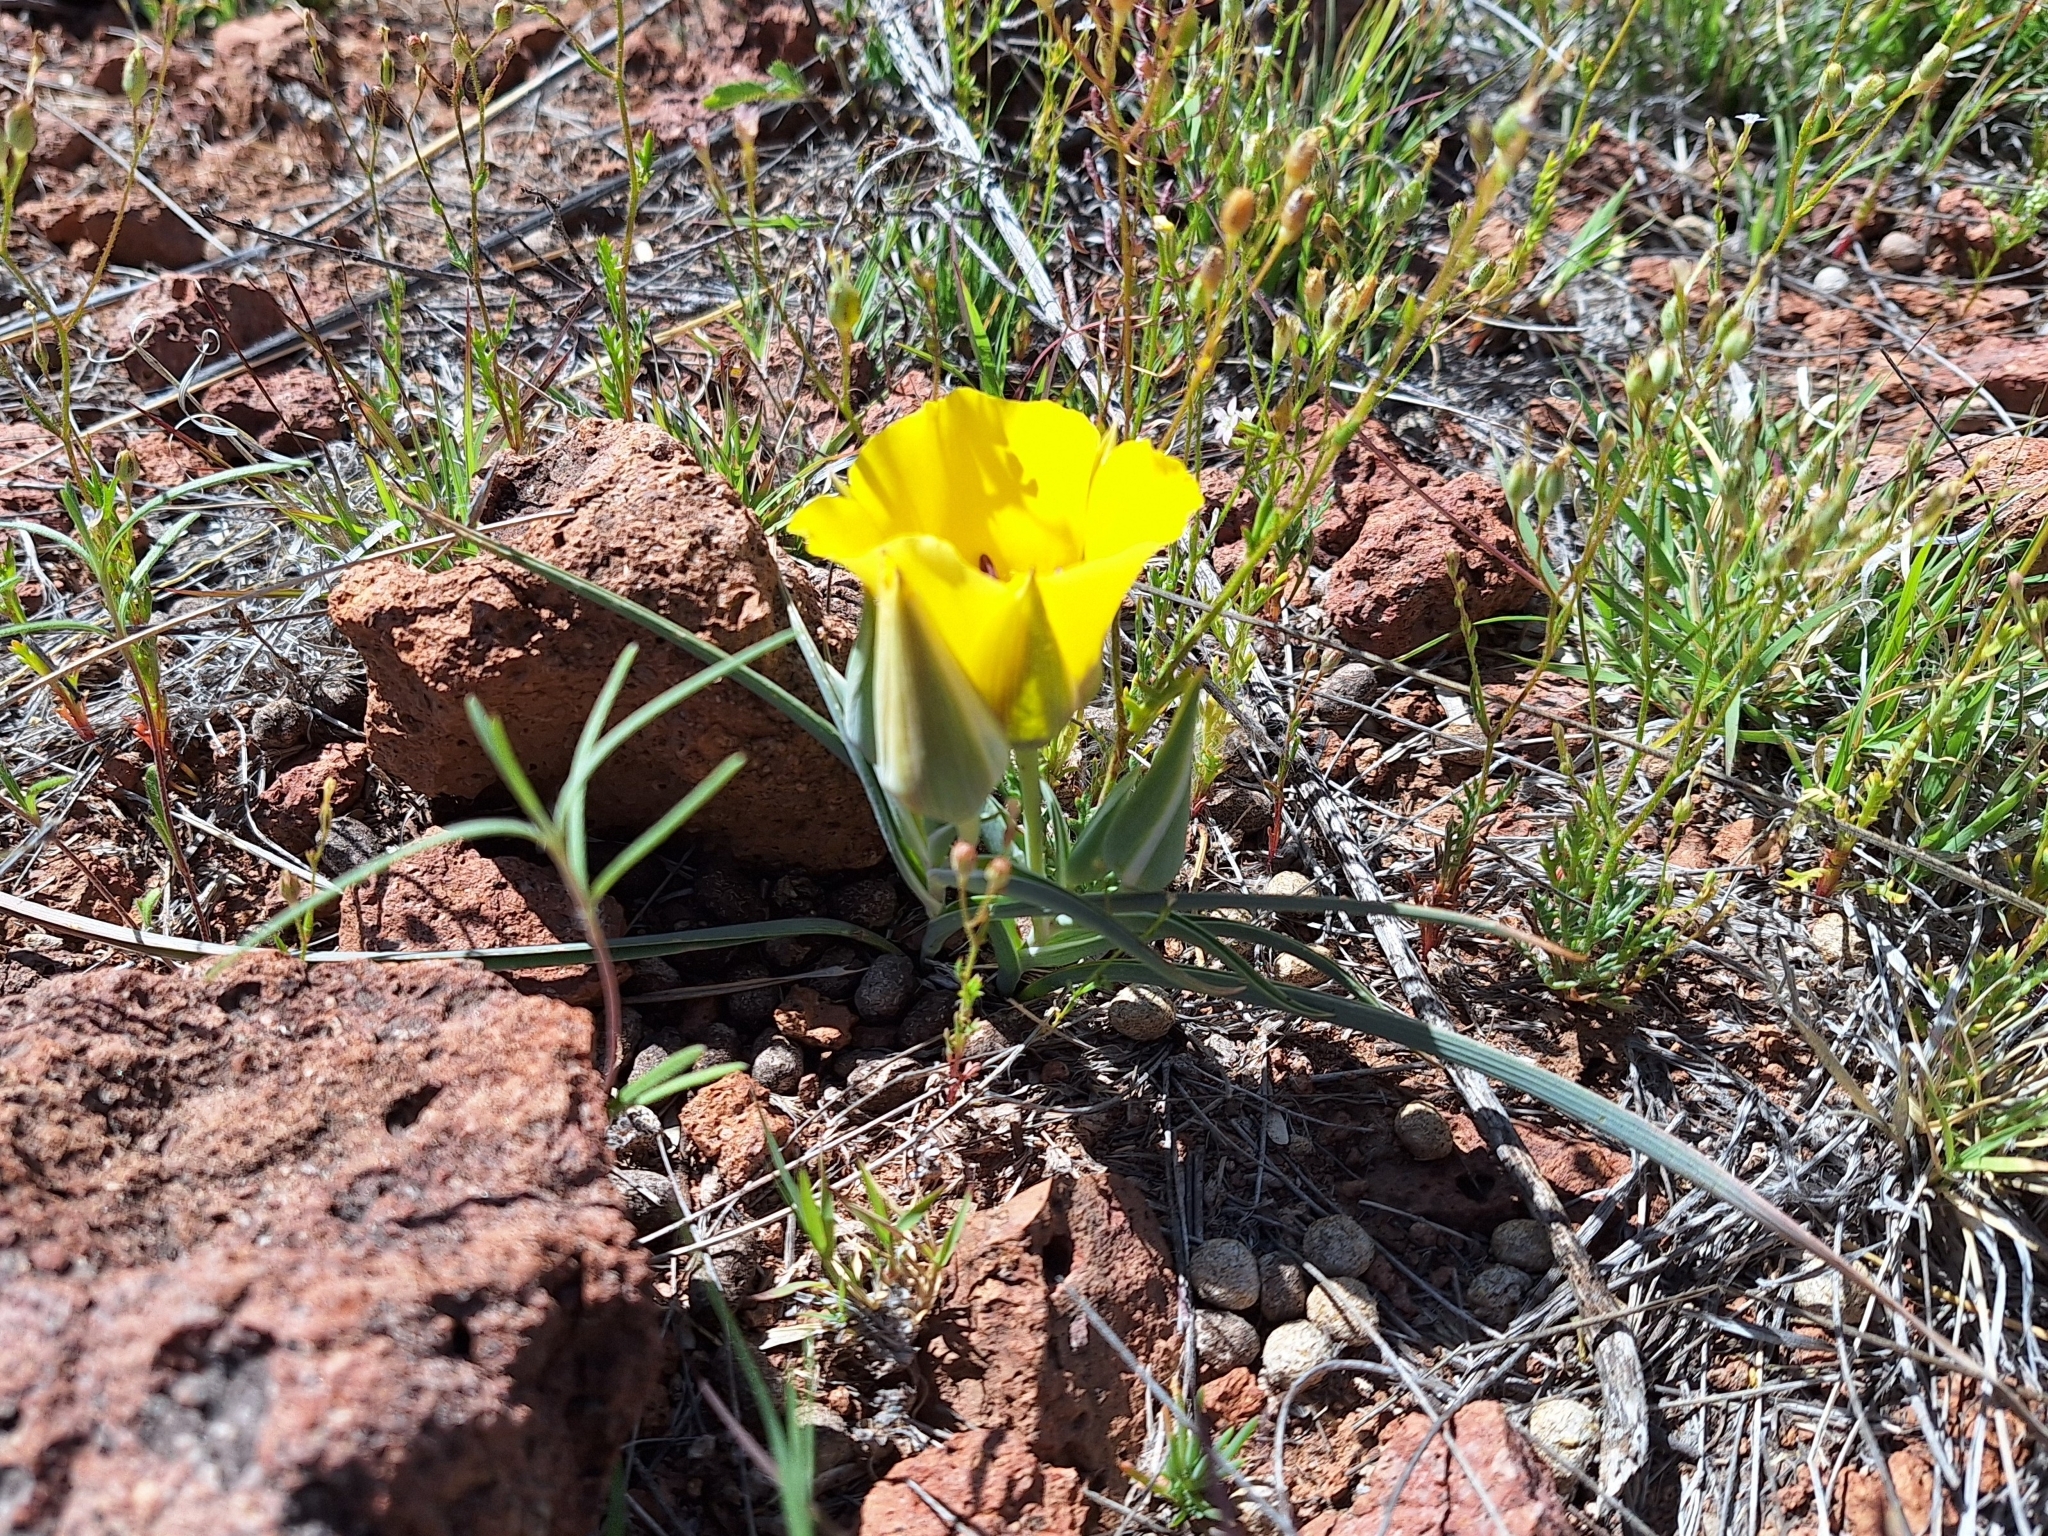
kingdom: Plantae
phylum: Tracheophyta
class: Liliopsida
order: Liliales
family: Liliaceae
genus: Calochortus
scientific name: Calochortus kennedyi
